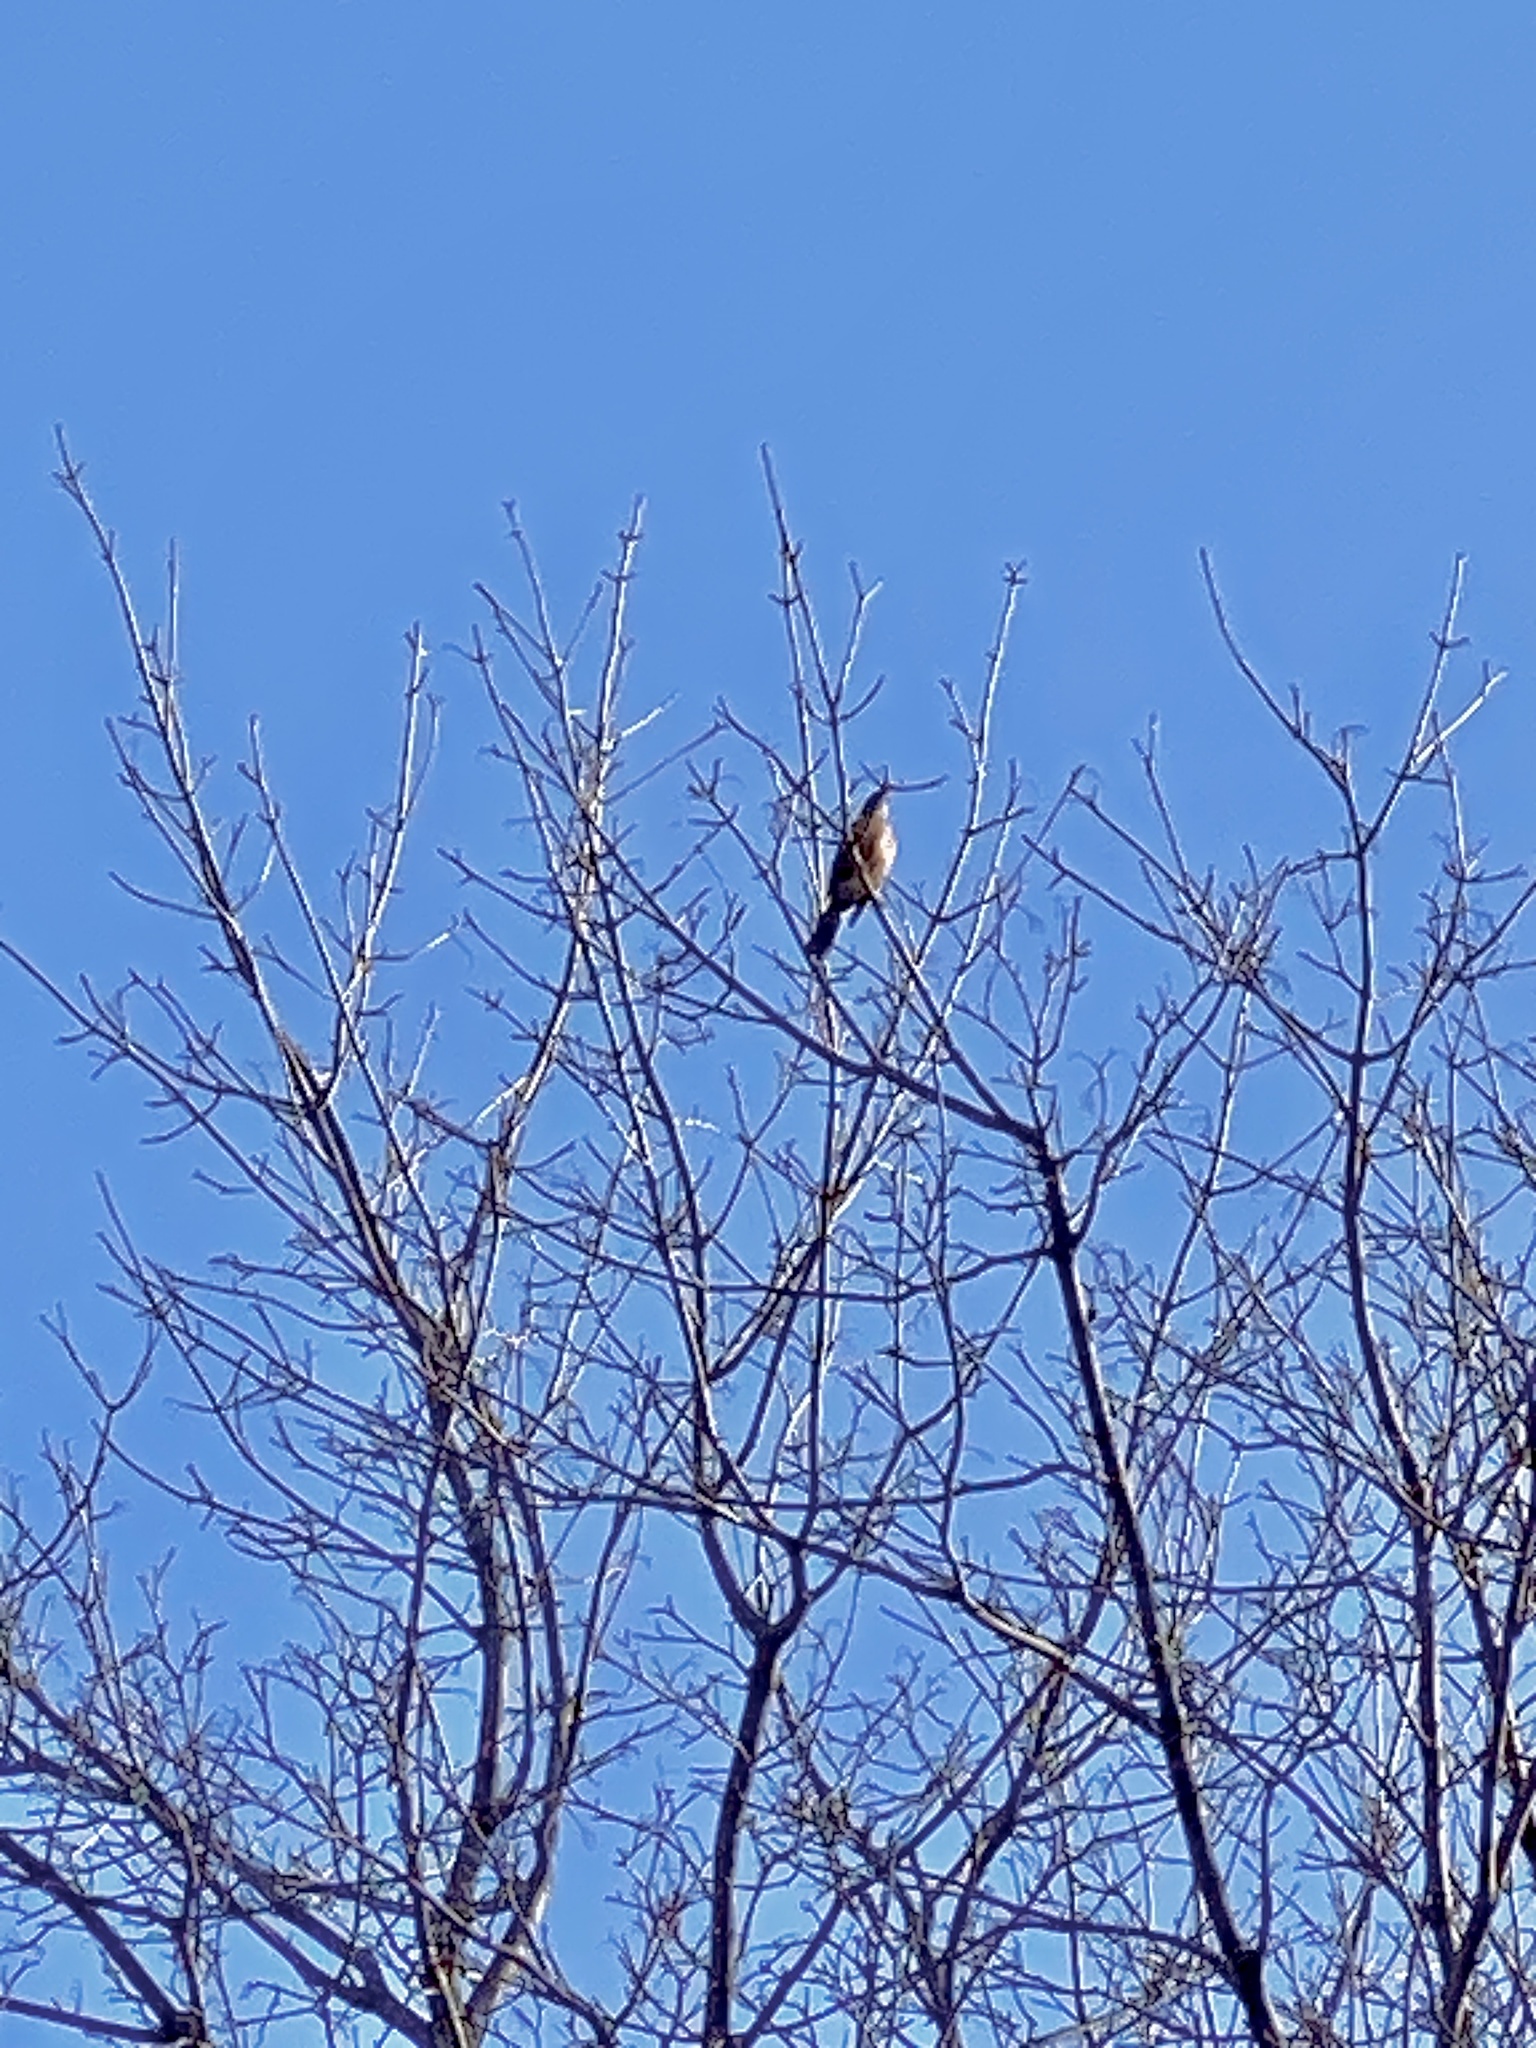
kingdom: Animalia
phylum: Chordata
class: Aves
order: Passeriformes
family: Turdidae
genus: Turdus
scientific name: Turdus migratorius
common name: American robin
